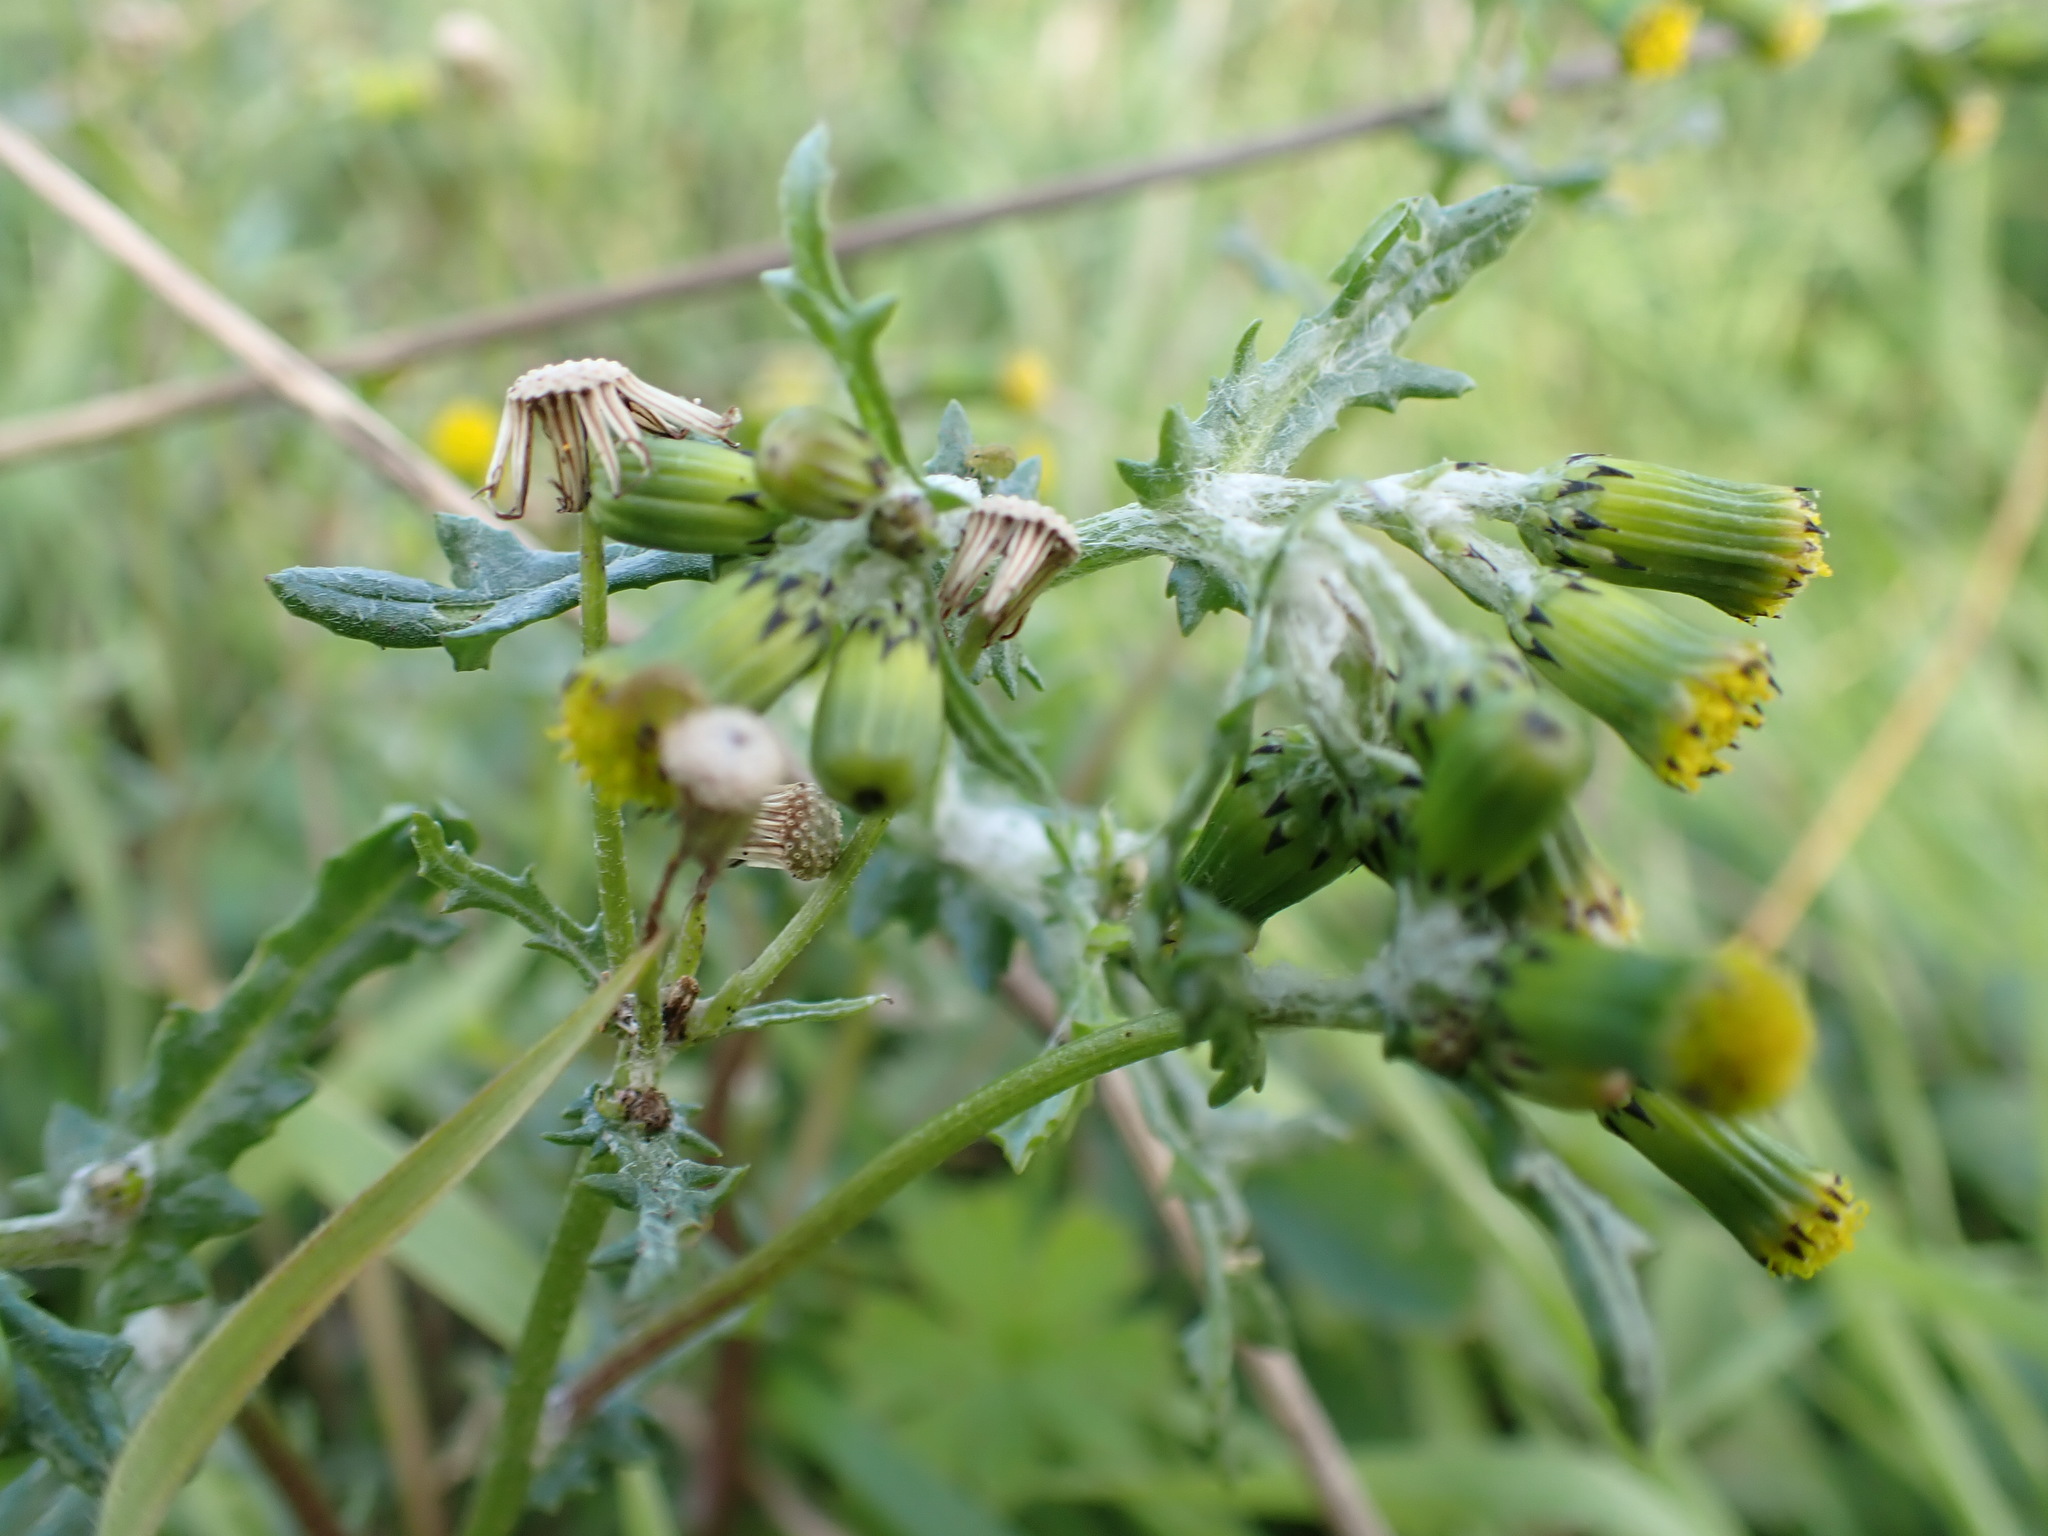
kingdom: Plantae
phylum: Tracheophyta
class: Magnoliopsida
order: Asterales
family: Asteraceae
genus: Senecio
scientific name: Senecio vulgaris
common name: Old-man-in-the-spring
